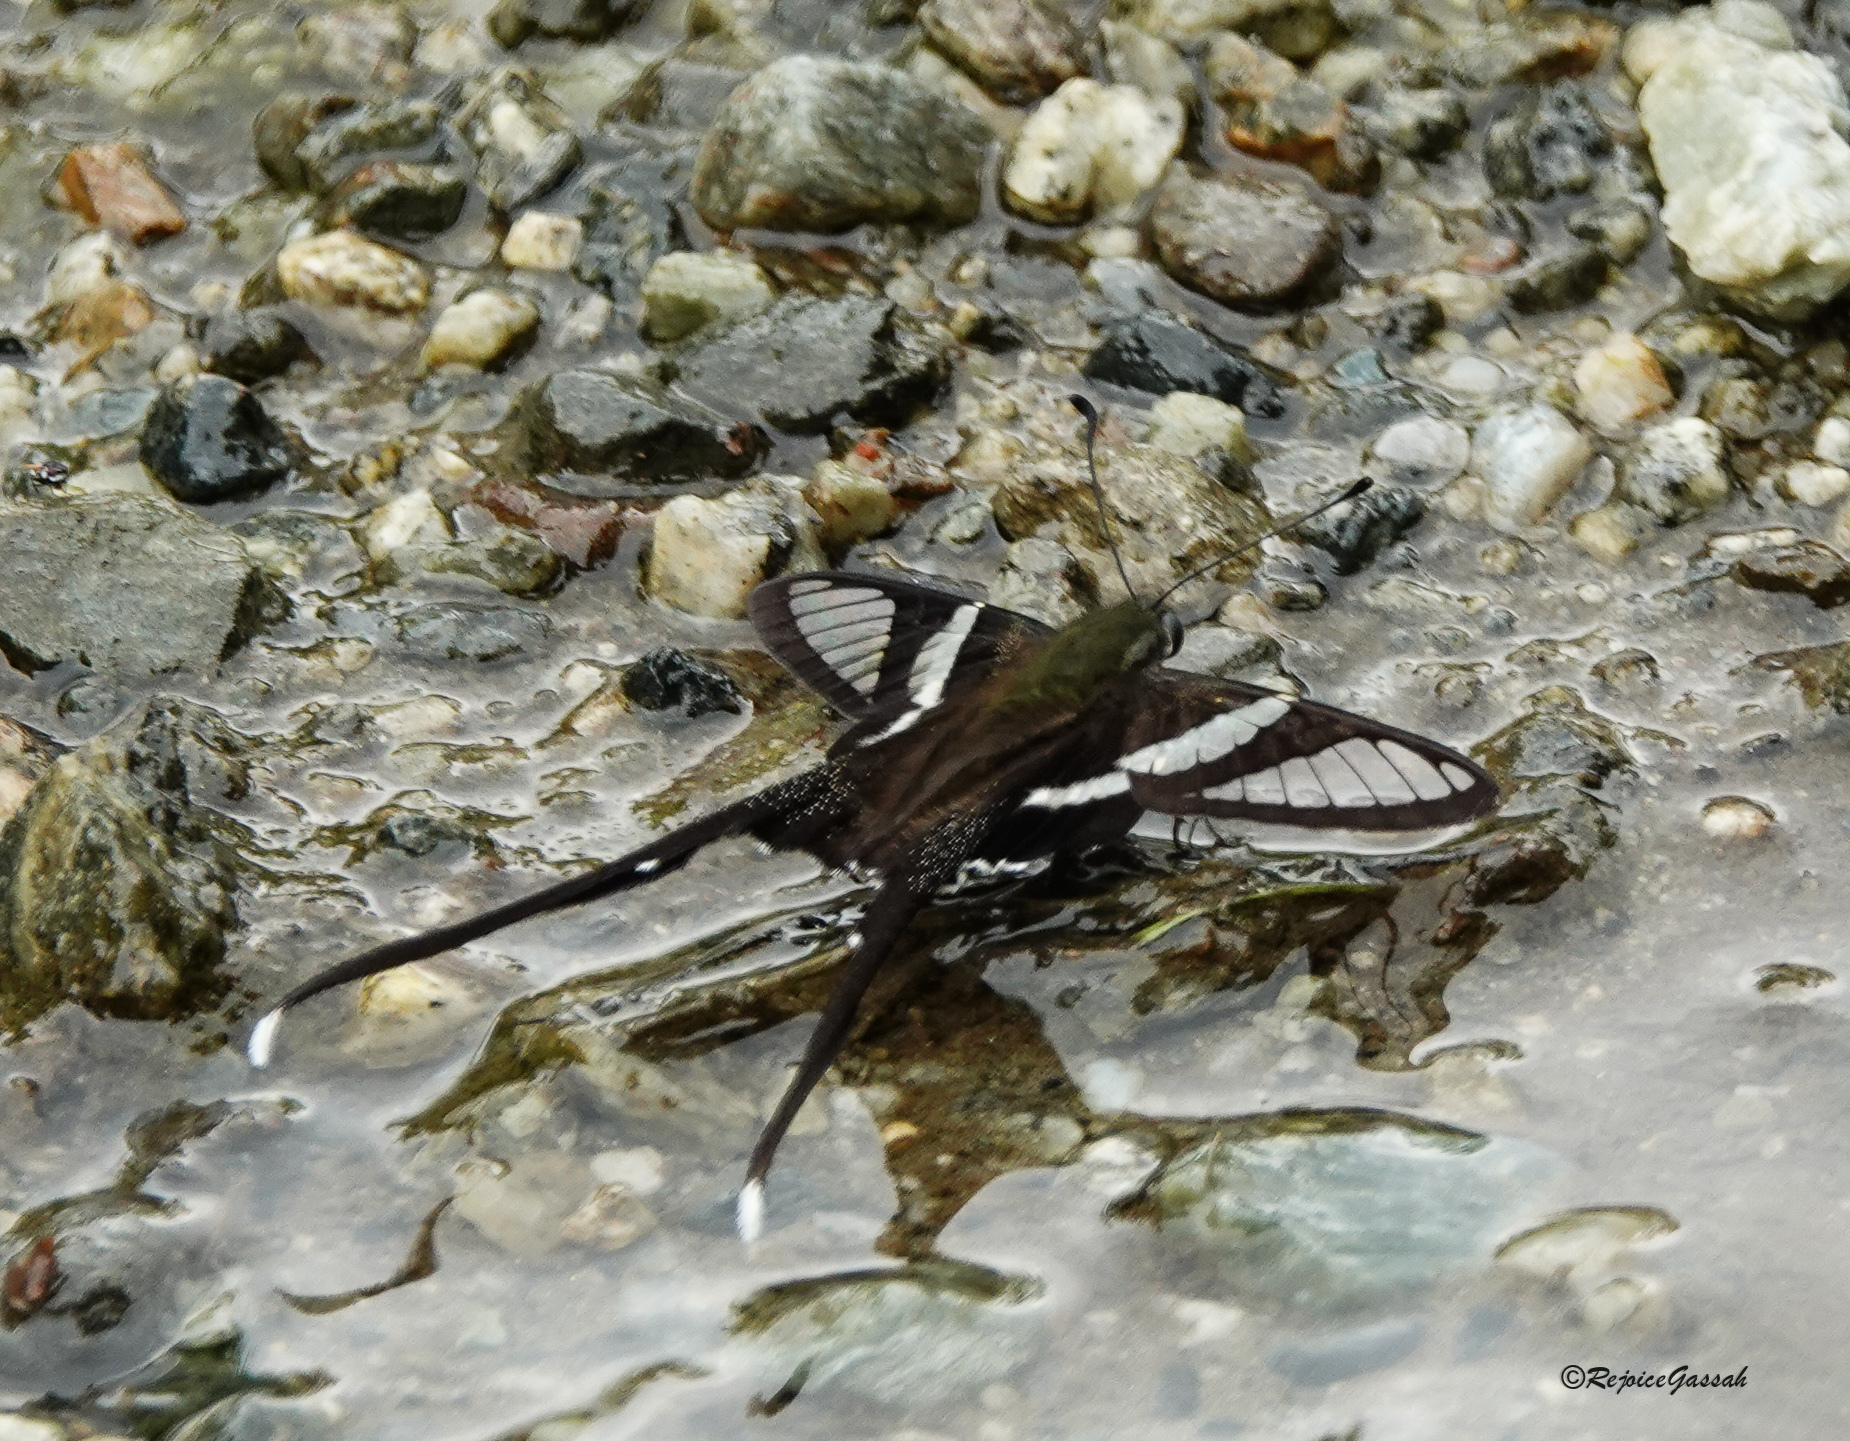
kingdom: Animalia
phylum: Arthropoda
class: Insecta
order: Lepidoptera
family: Papilionidae
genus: Lamproptera
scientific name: Lamproptera curius
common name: White dragontail
